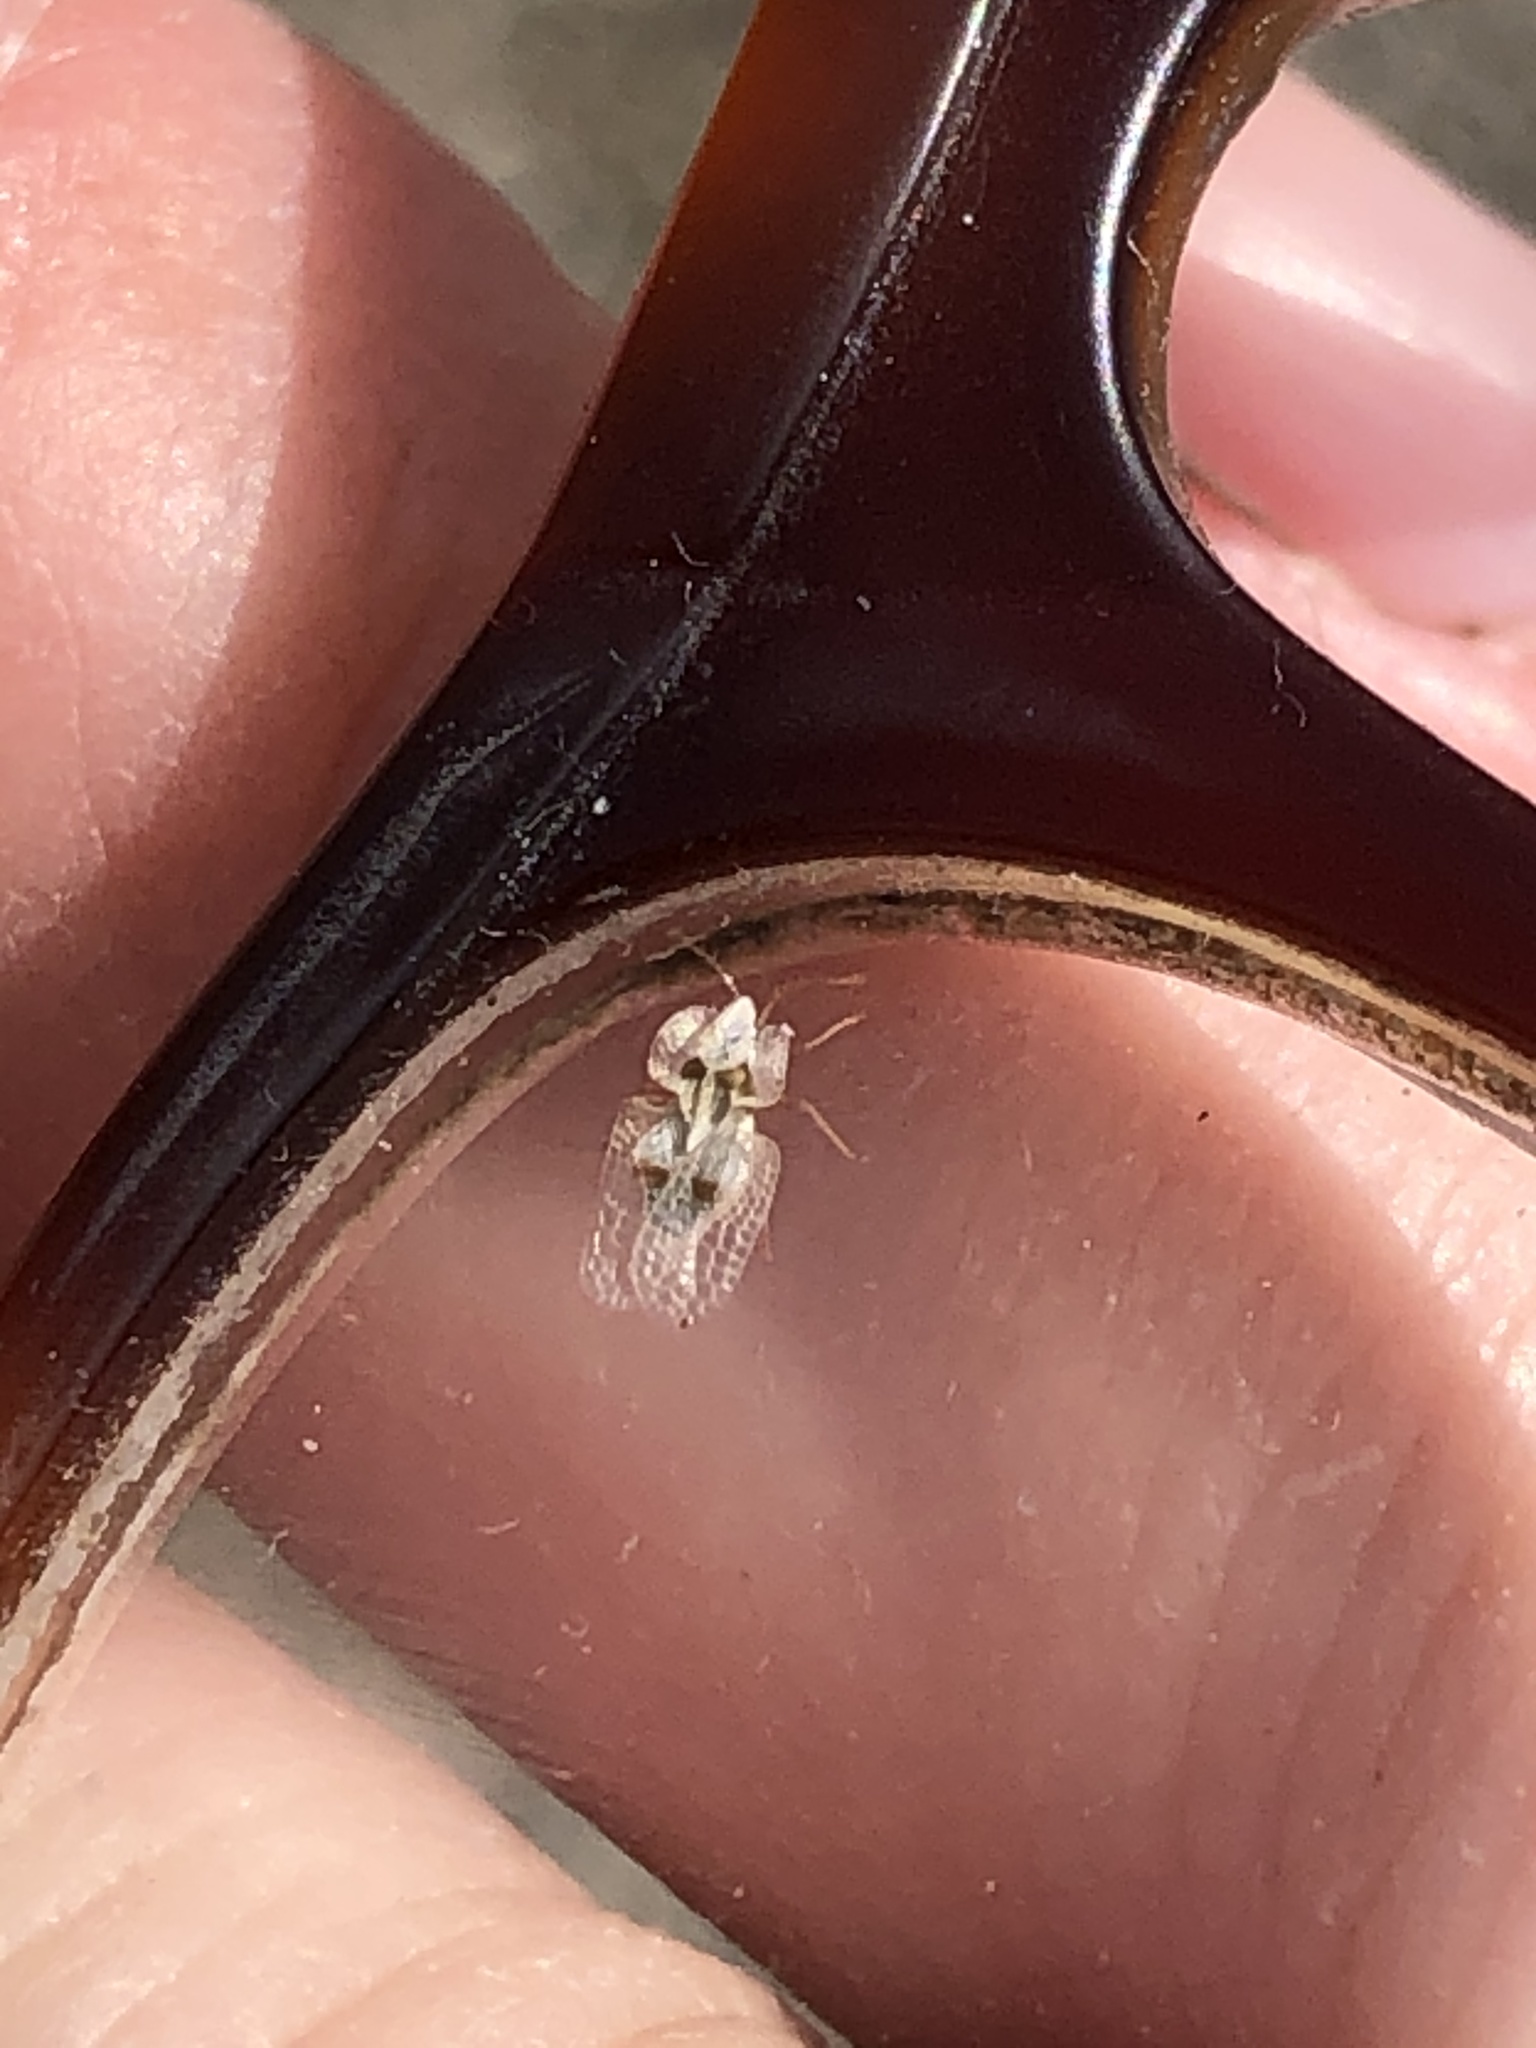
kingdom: Animalia
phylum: Arthropoda
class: Insecta
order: Hemiptera
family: Tingidae
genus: Corythucha
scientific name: Corythucha ciliata
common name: Sycamore lace bug
